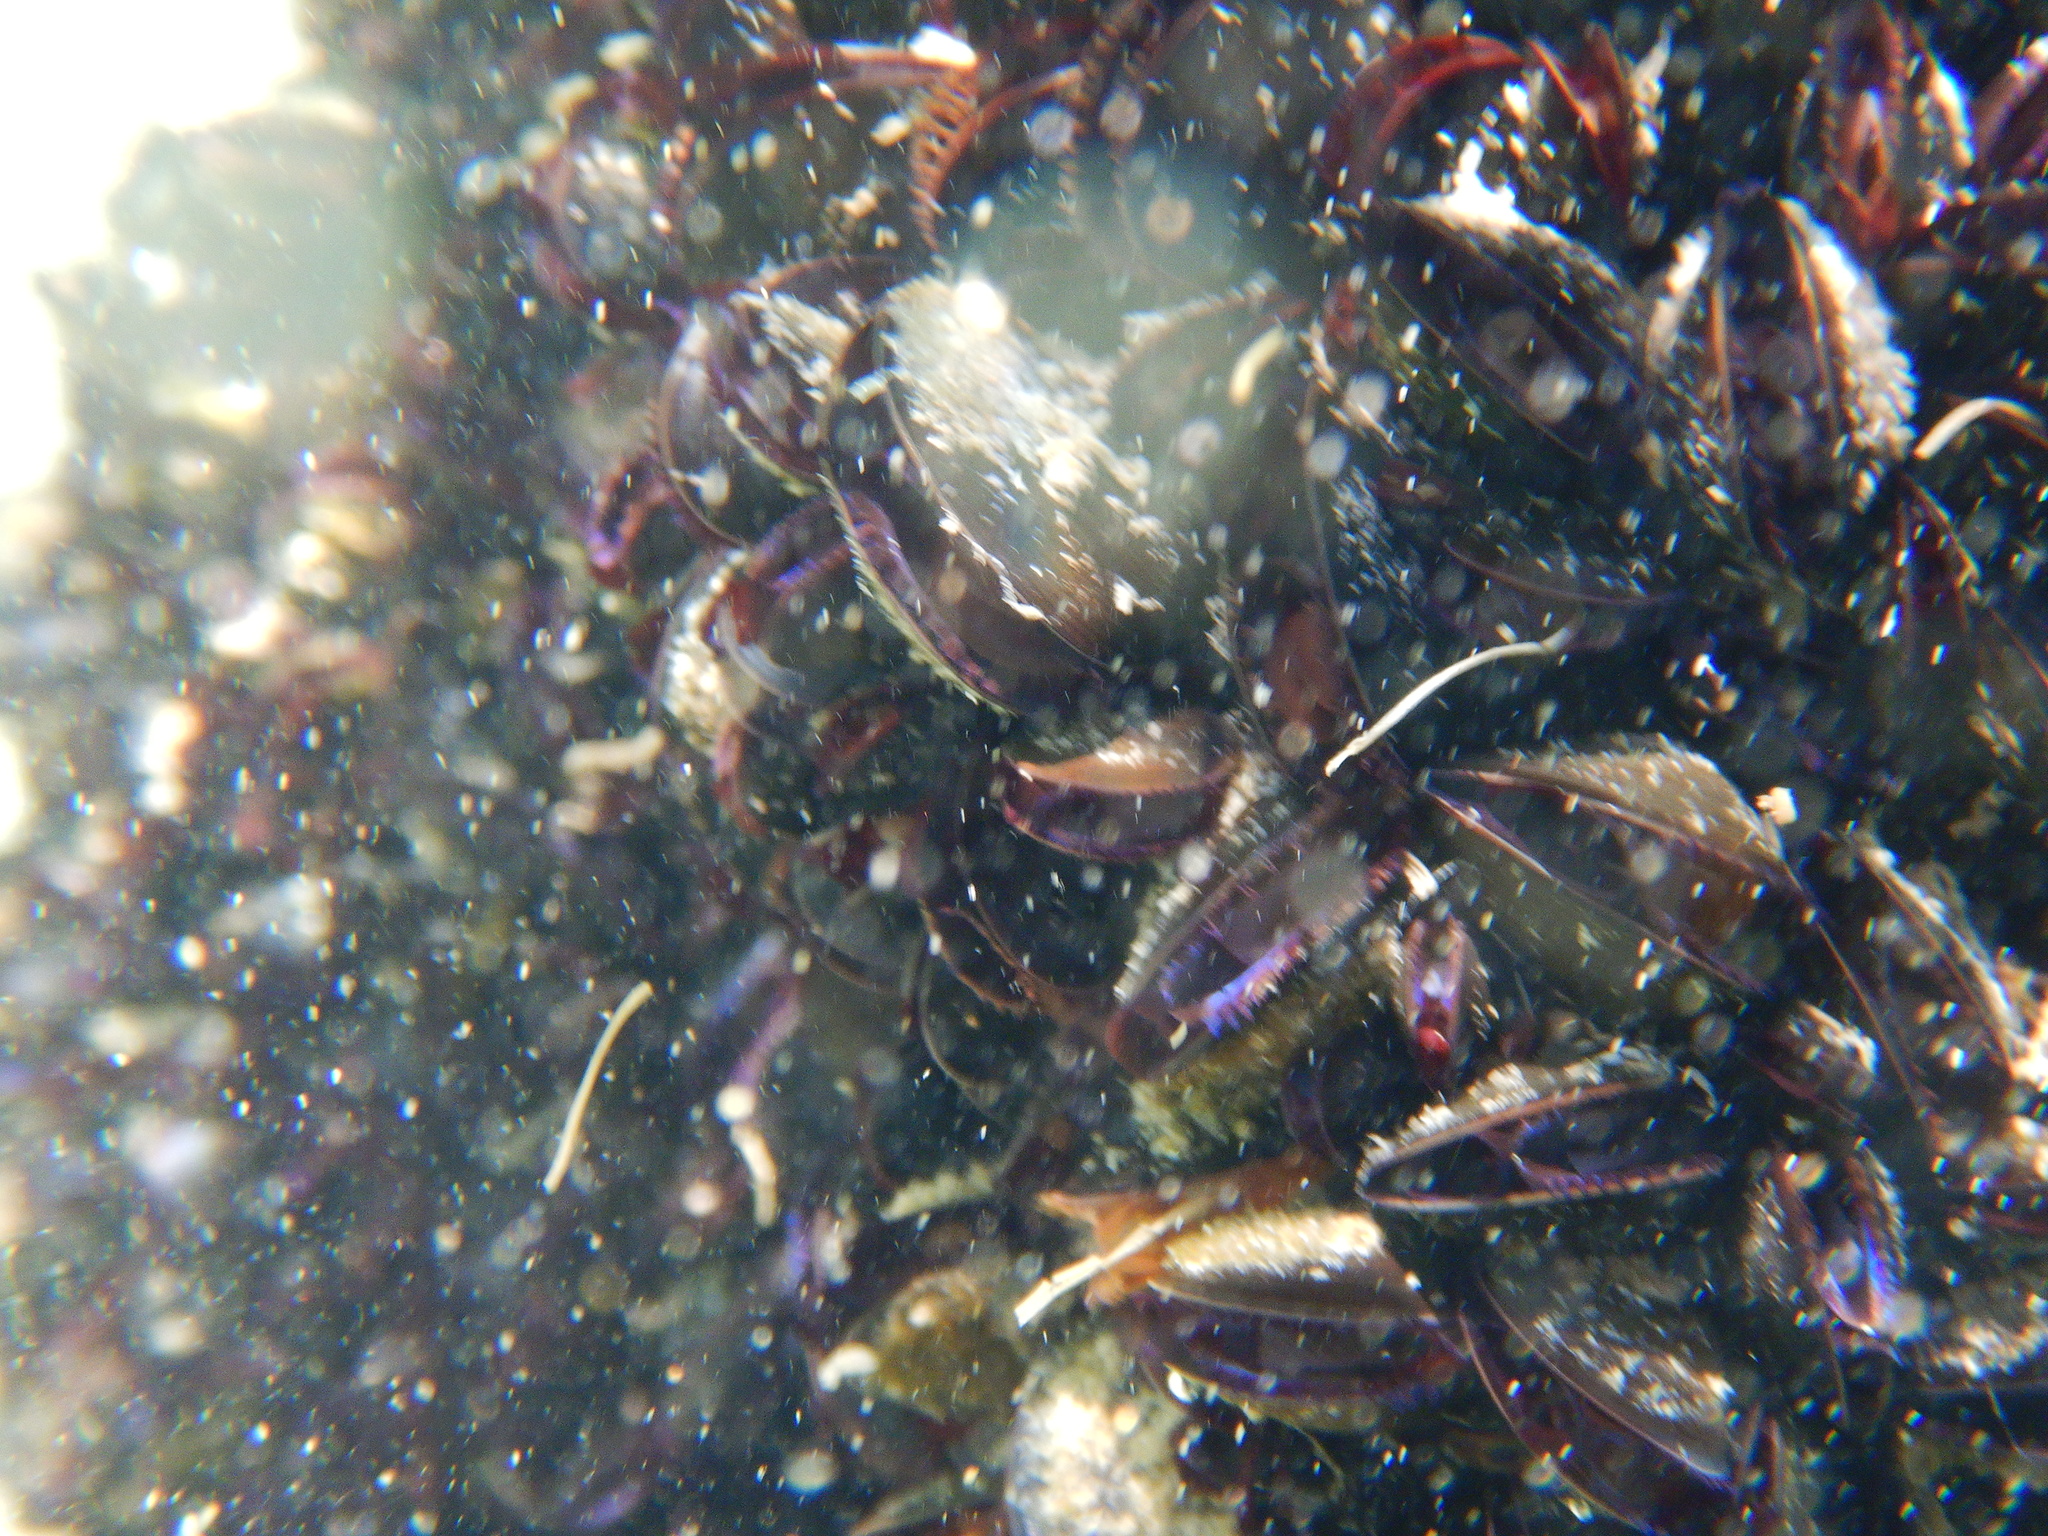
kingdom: Animalia
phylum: Mollusca
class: Bivalvia
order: Mytilida
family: Mytilidae
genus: Mytilus
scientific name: Mytilus galloprovincialis
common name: Mediterranean mussel
